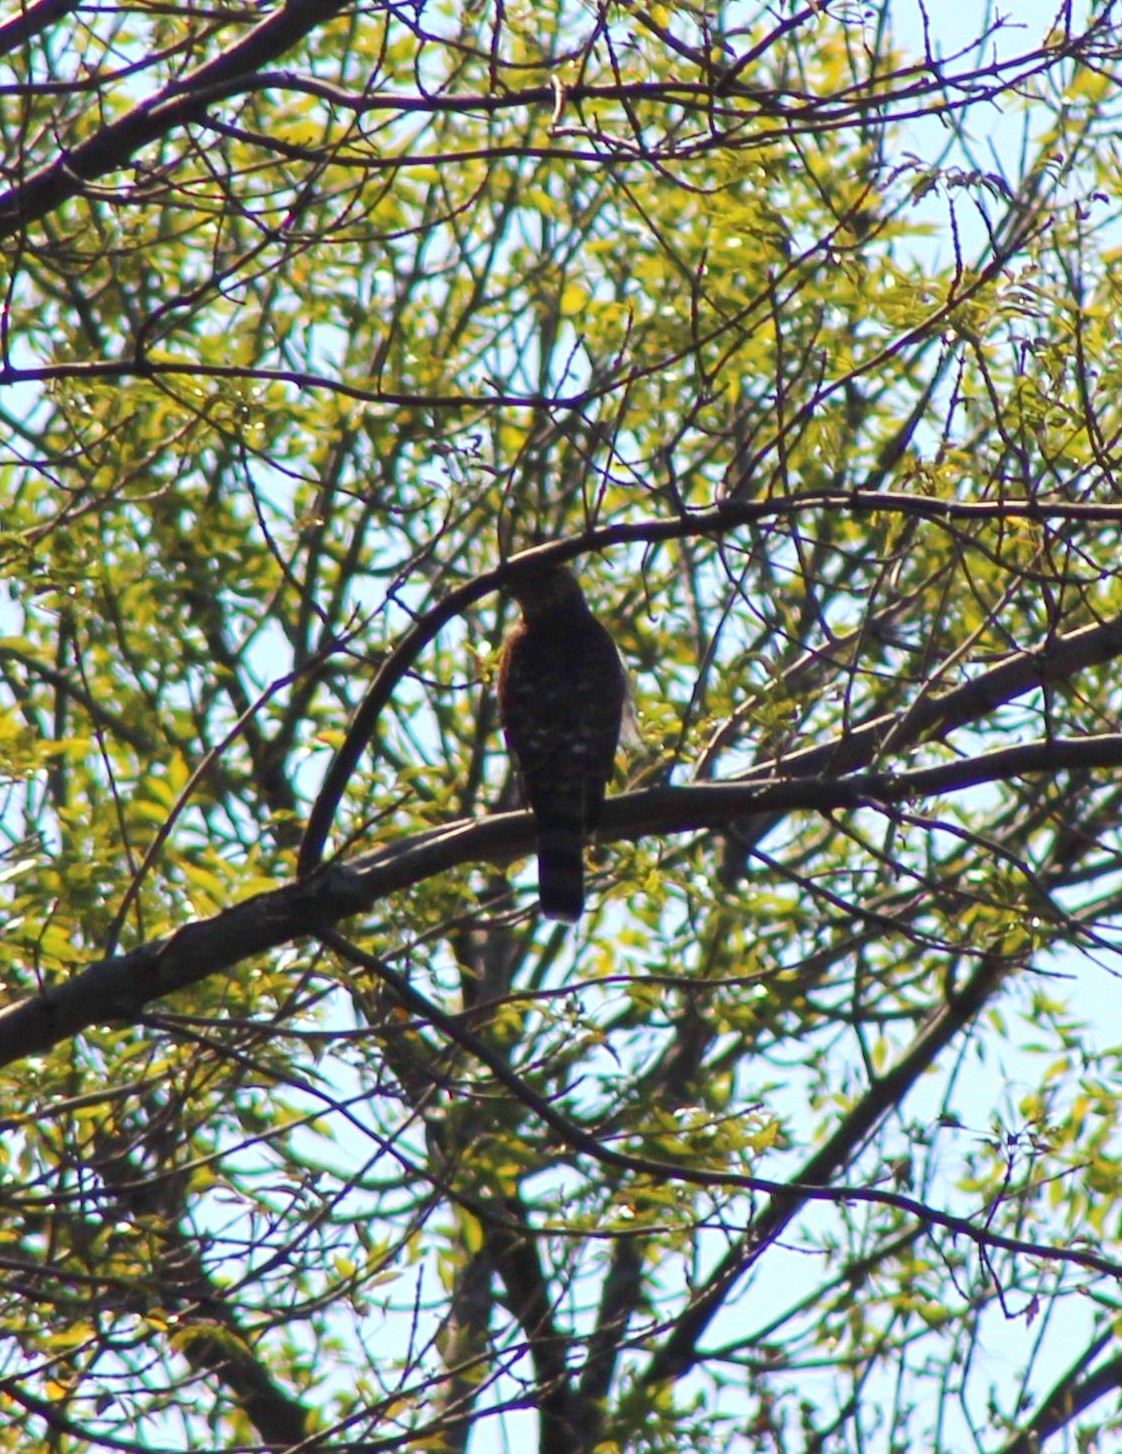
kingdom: Animalia
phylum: Chordata
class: Aves
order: Accipitriformes
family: Accipitridae
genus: Accipiter
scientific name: Accipiter cooperii
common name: Cooper's hawk
